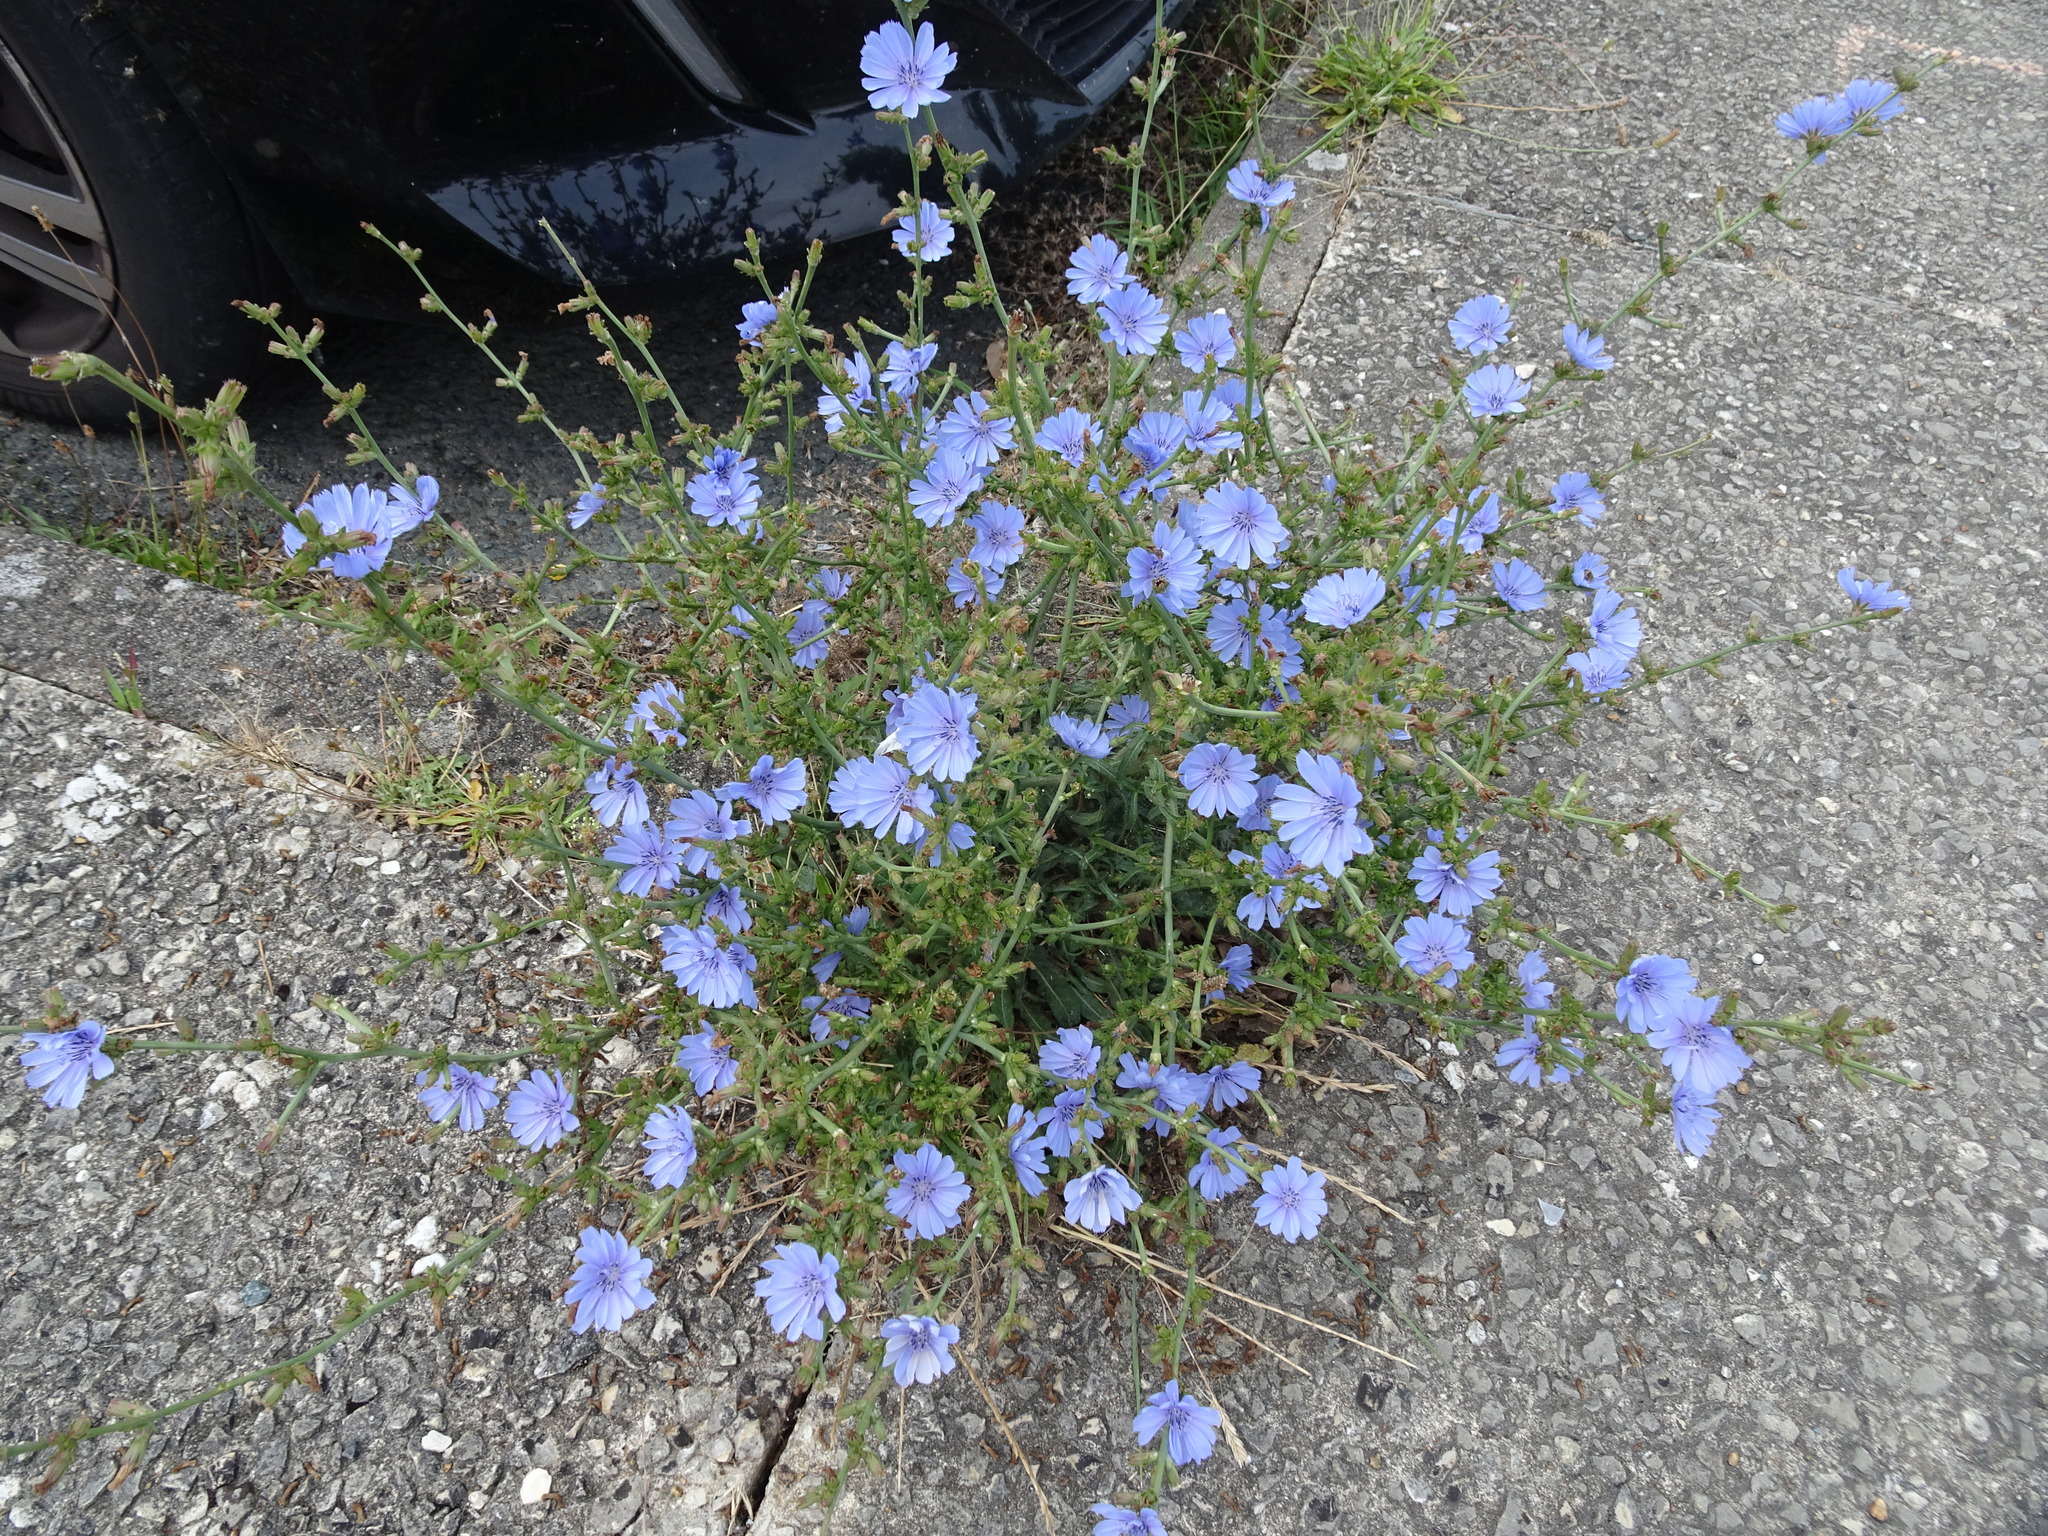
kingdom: Plantae
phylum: Tracheophyta
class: Magnoliopsida
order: Asterales
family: Asteraceae
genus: Cichorium
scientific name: Cichorium intybus
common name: Chicory
